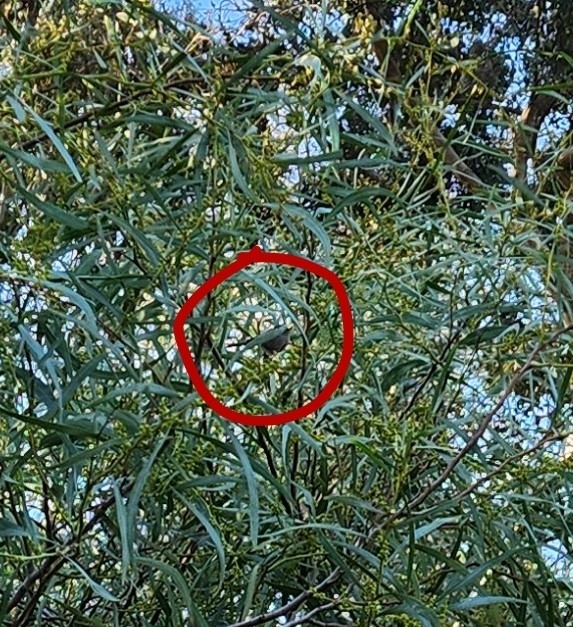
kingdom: Animalia
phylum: Chordata
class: Aves
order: Passeriformes
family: Aegithalidae
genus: Psaltriparus
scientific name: Psaltriparus minimus
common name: American bushtit
